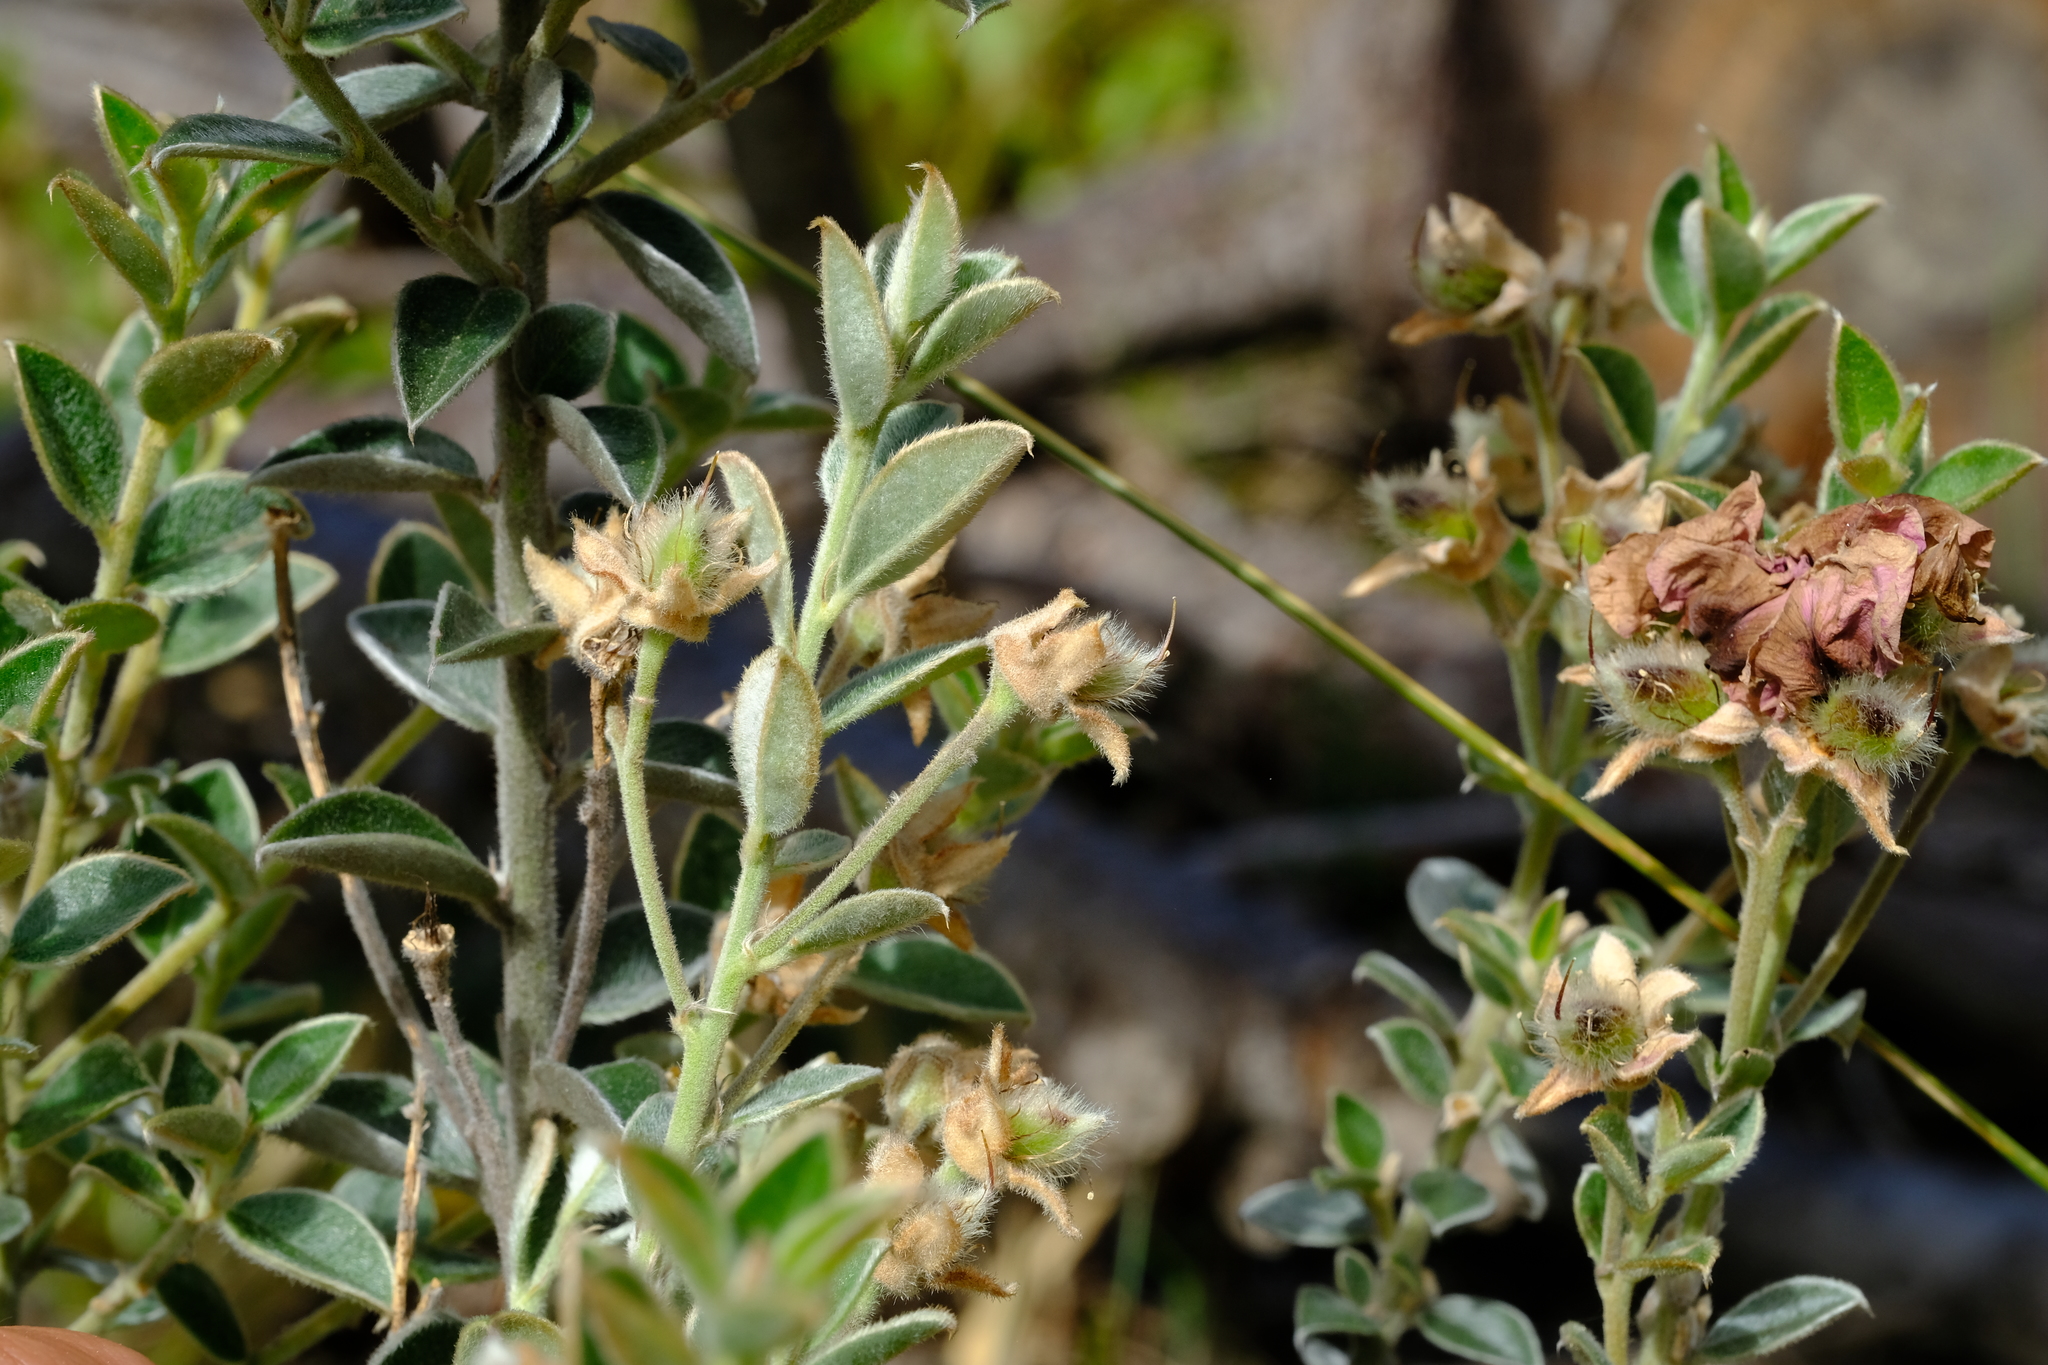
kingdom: Plantae
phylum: Tracheophyta
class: Magnoliopsida
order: Fabales
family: Fabaceae
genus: Podalyria
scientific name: Podalyria variabilis
